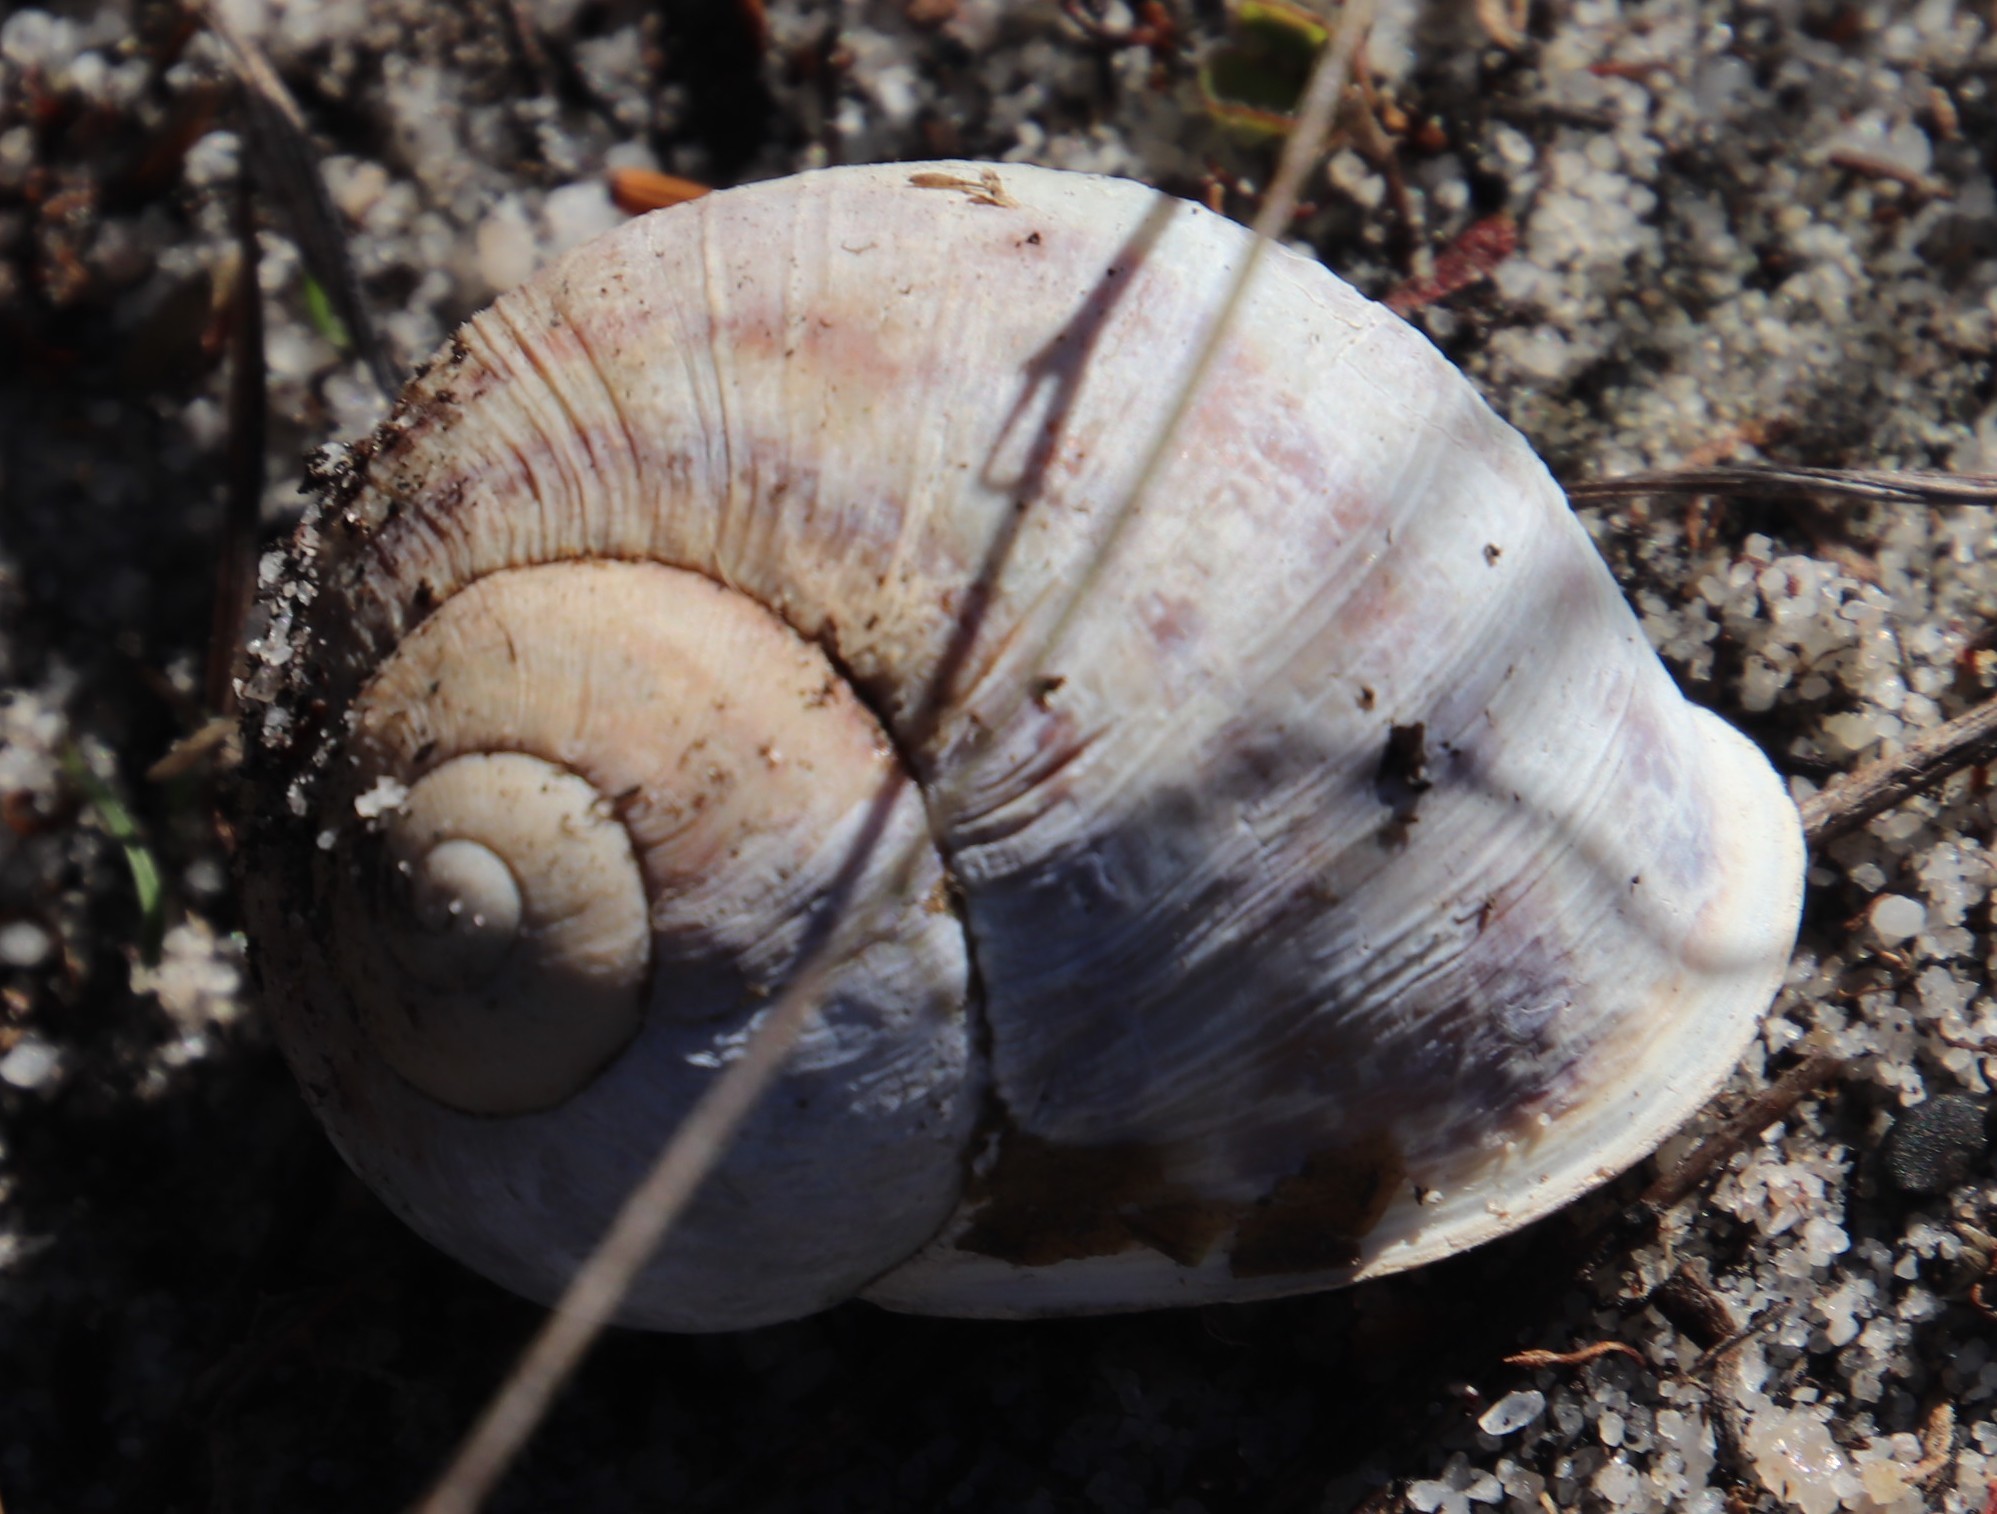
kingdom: Animalia
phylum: Mollusca
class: Gastropoda
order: Stylommatophora
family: Helicidae
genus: Cornu
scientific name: Cornu aspersum
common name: Brown garden snail
